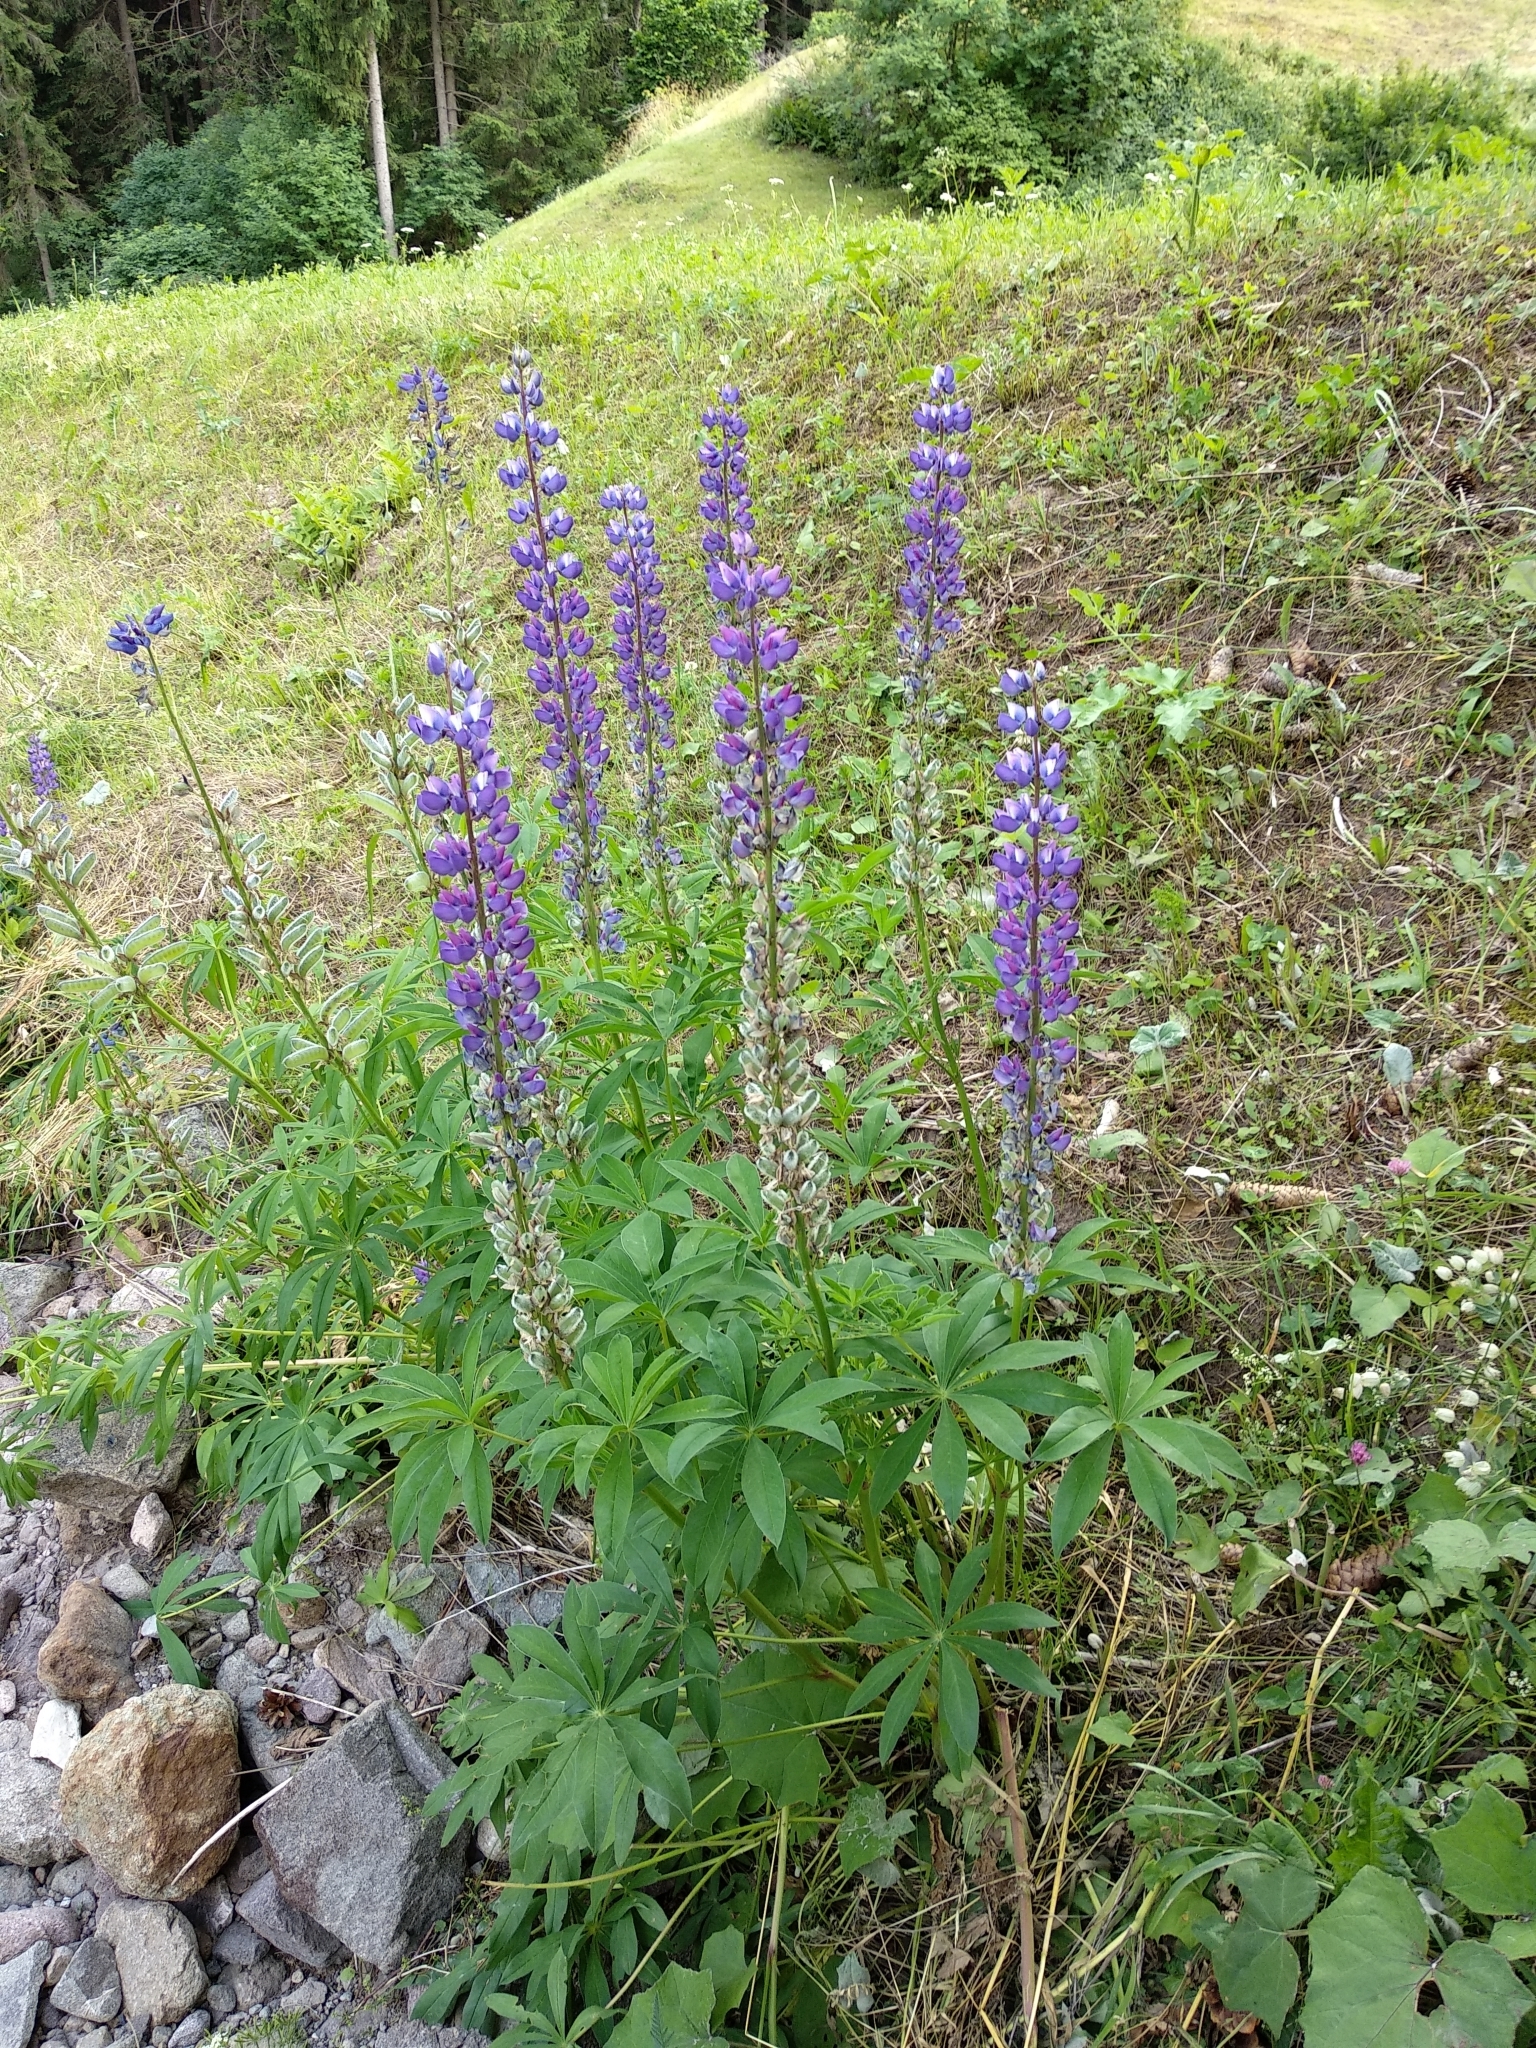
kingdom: Plantae
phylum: Tracheophyta
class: Magnoliopsida
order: Fabales
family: Fabaceae
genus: Lupinus
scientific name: Lupinus polyphyllus
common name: Garden lupin
